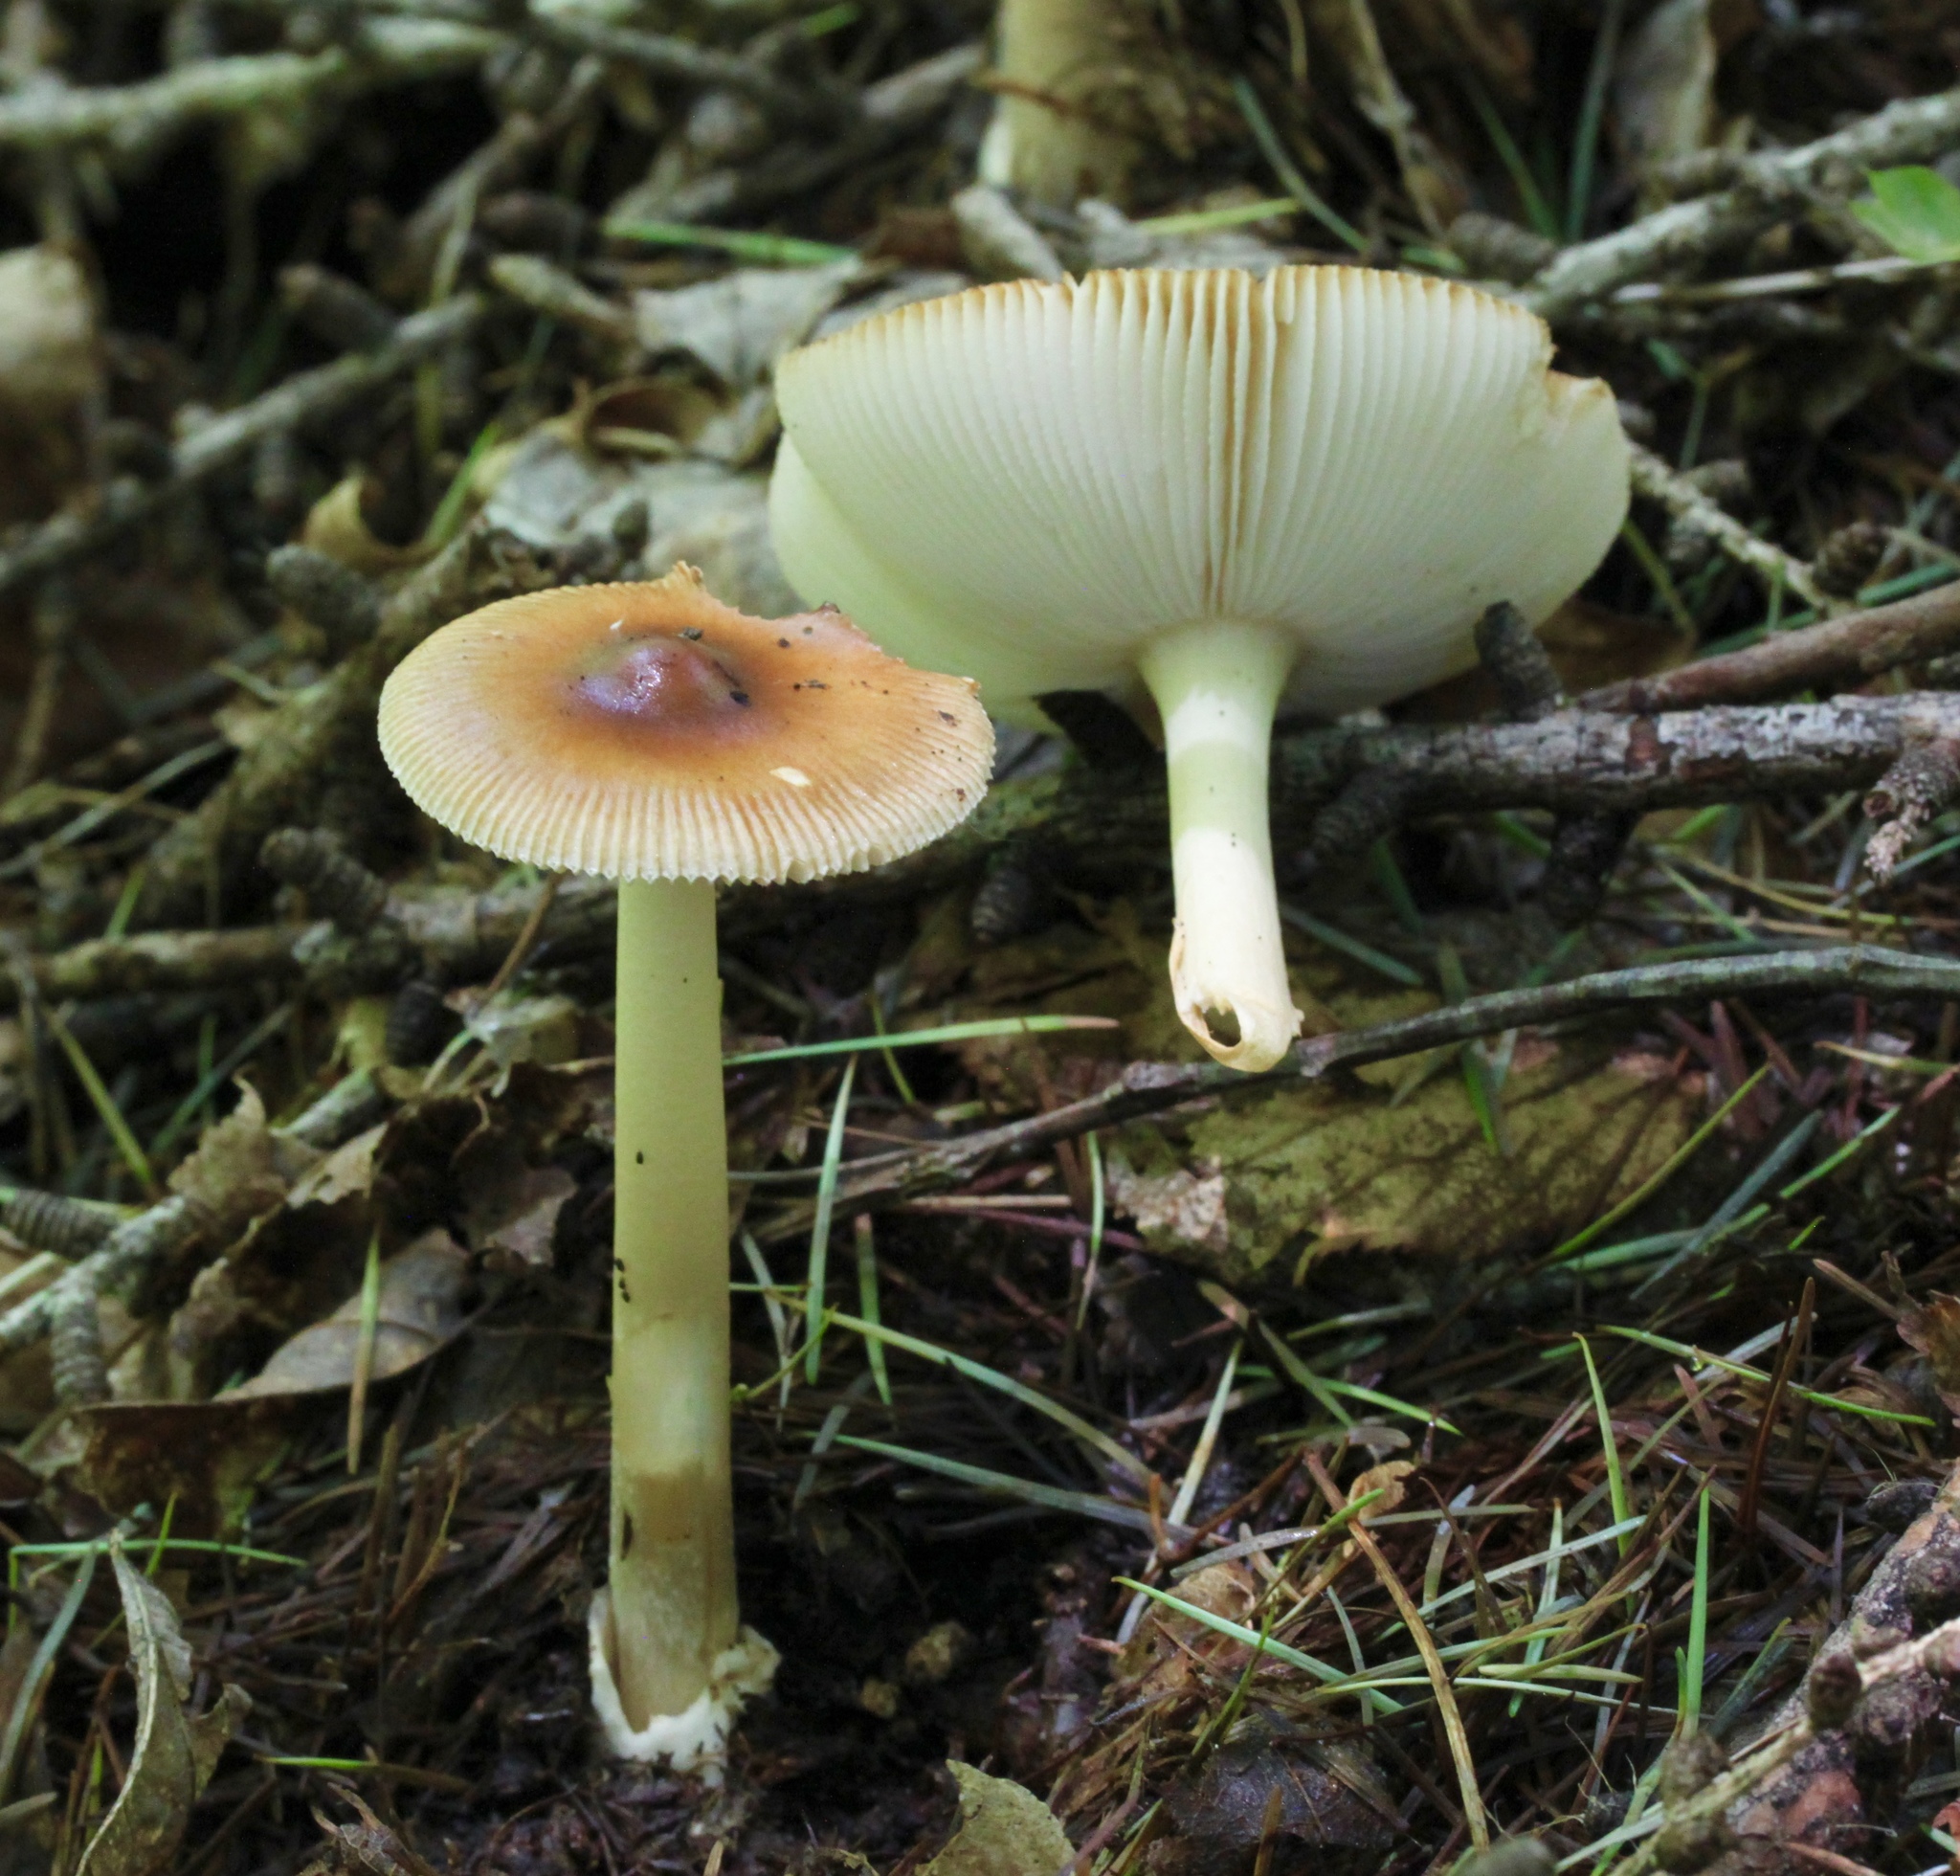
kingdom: Fungi
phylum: Basidiomycota
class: Agaricomycetes
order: Agaricales
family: Amanitaceae
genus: Amanita
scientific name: Amanita fulva
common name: Tawny grisette
